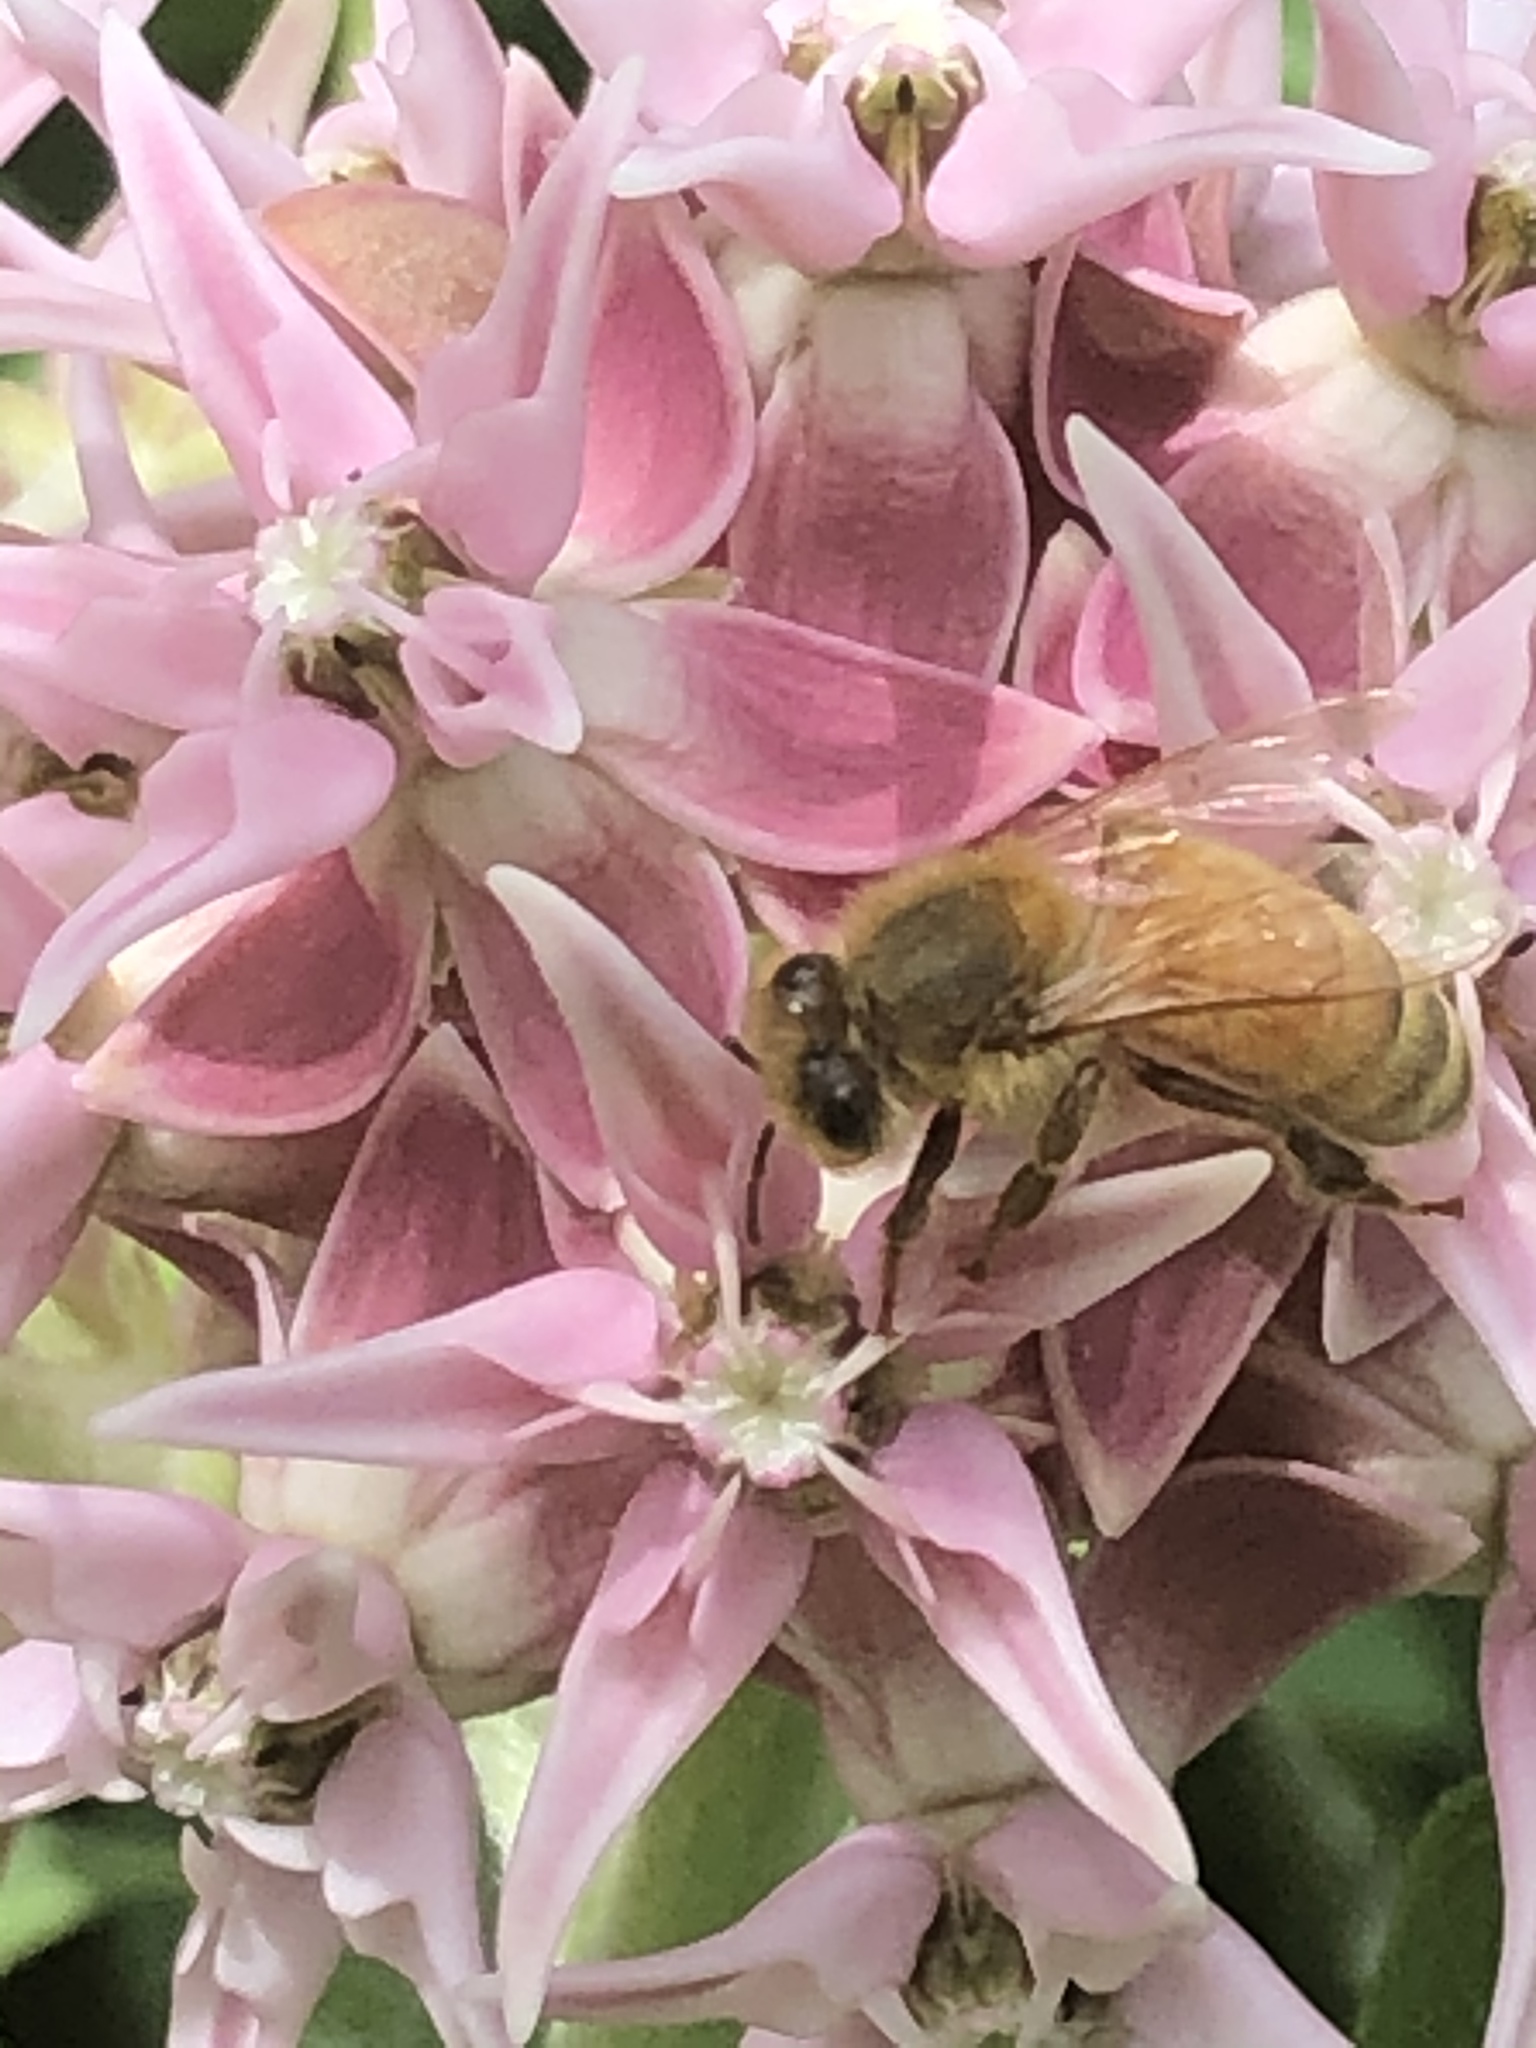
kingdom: Animalia
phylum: Arthropoda
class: Insecta
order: Hymenoptera
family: Apidae
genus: Apis
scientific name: Apis mellifera
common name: Honey bee
